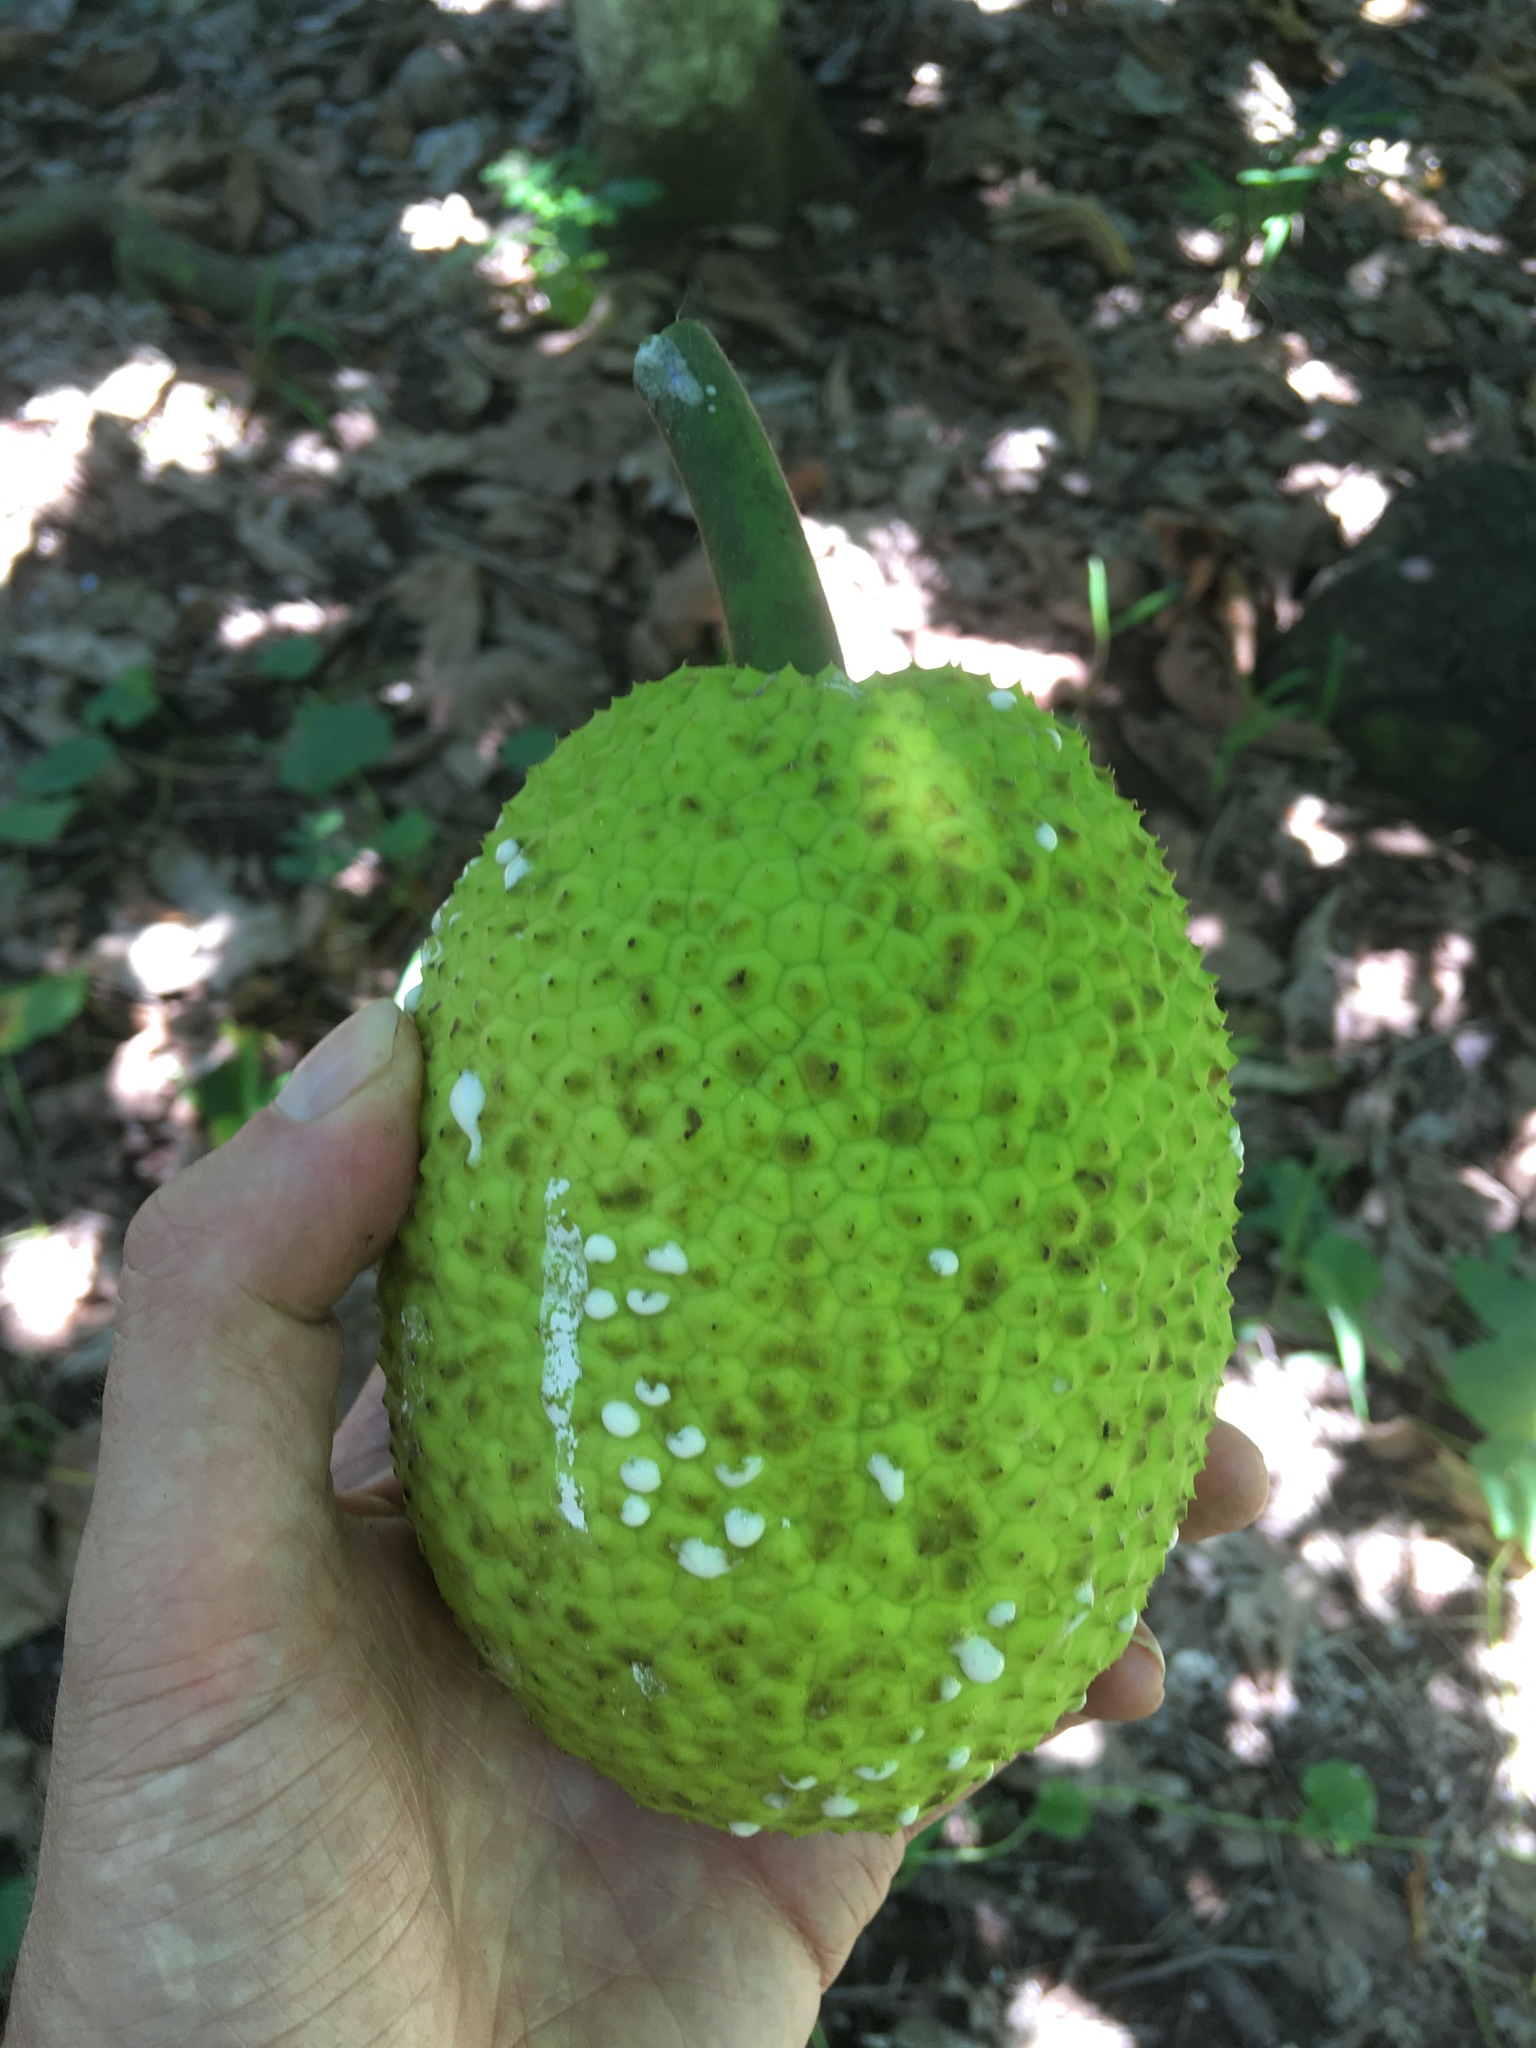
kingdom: Plantae
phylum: Tracheophyta
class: Magnoliopsida
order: Rosales
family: Moraceae
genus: Artocarpus
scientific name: Artocarpus altilis
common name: Breadfruit
